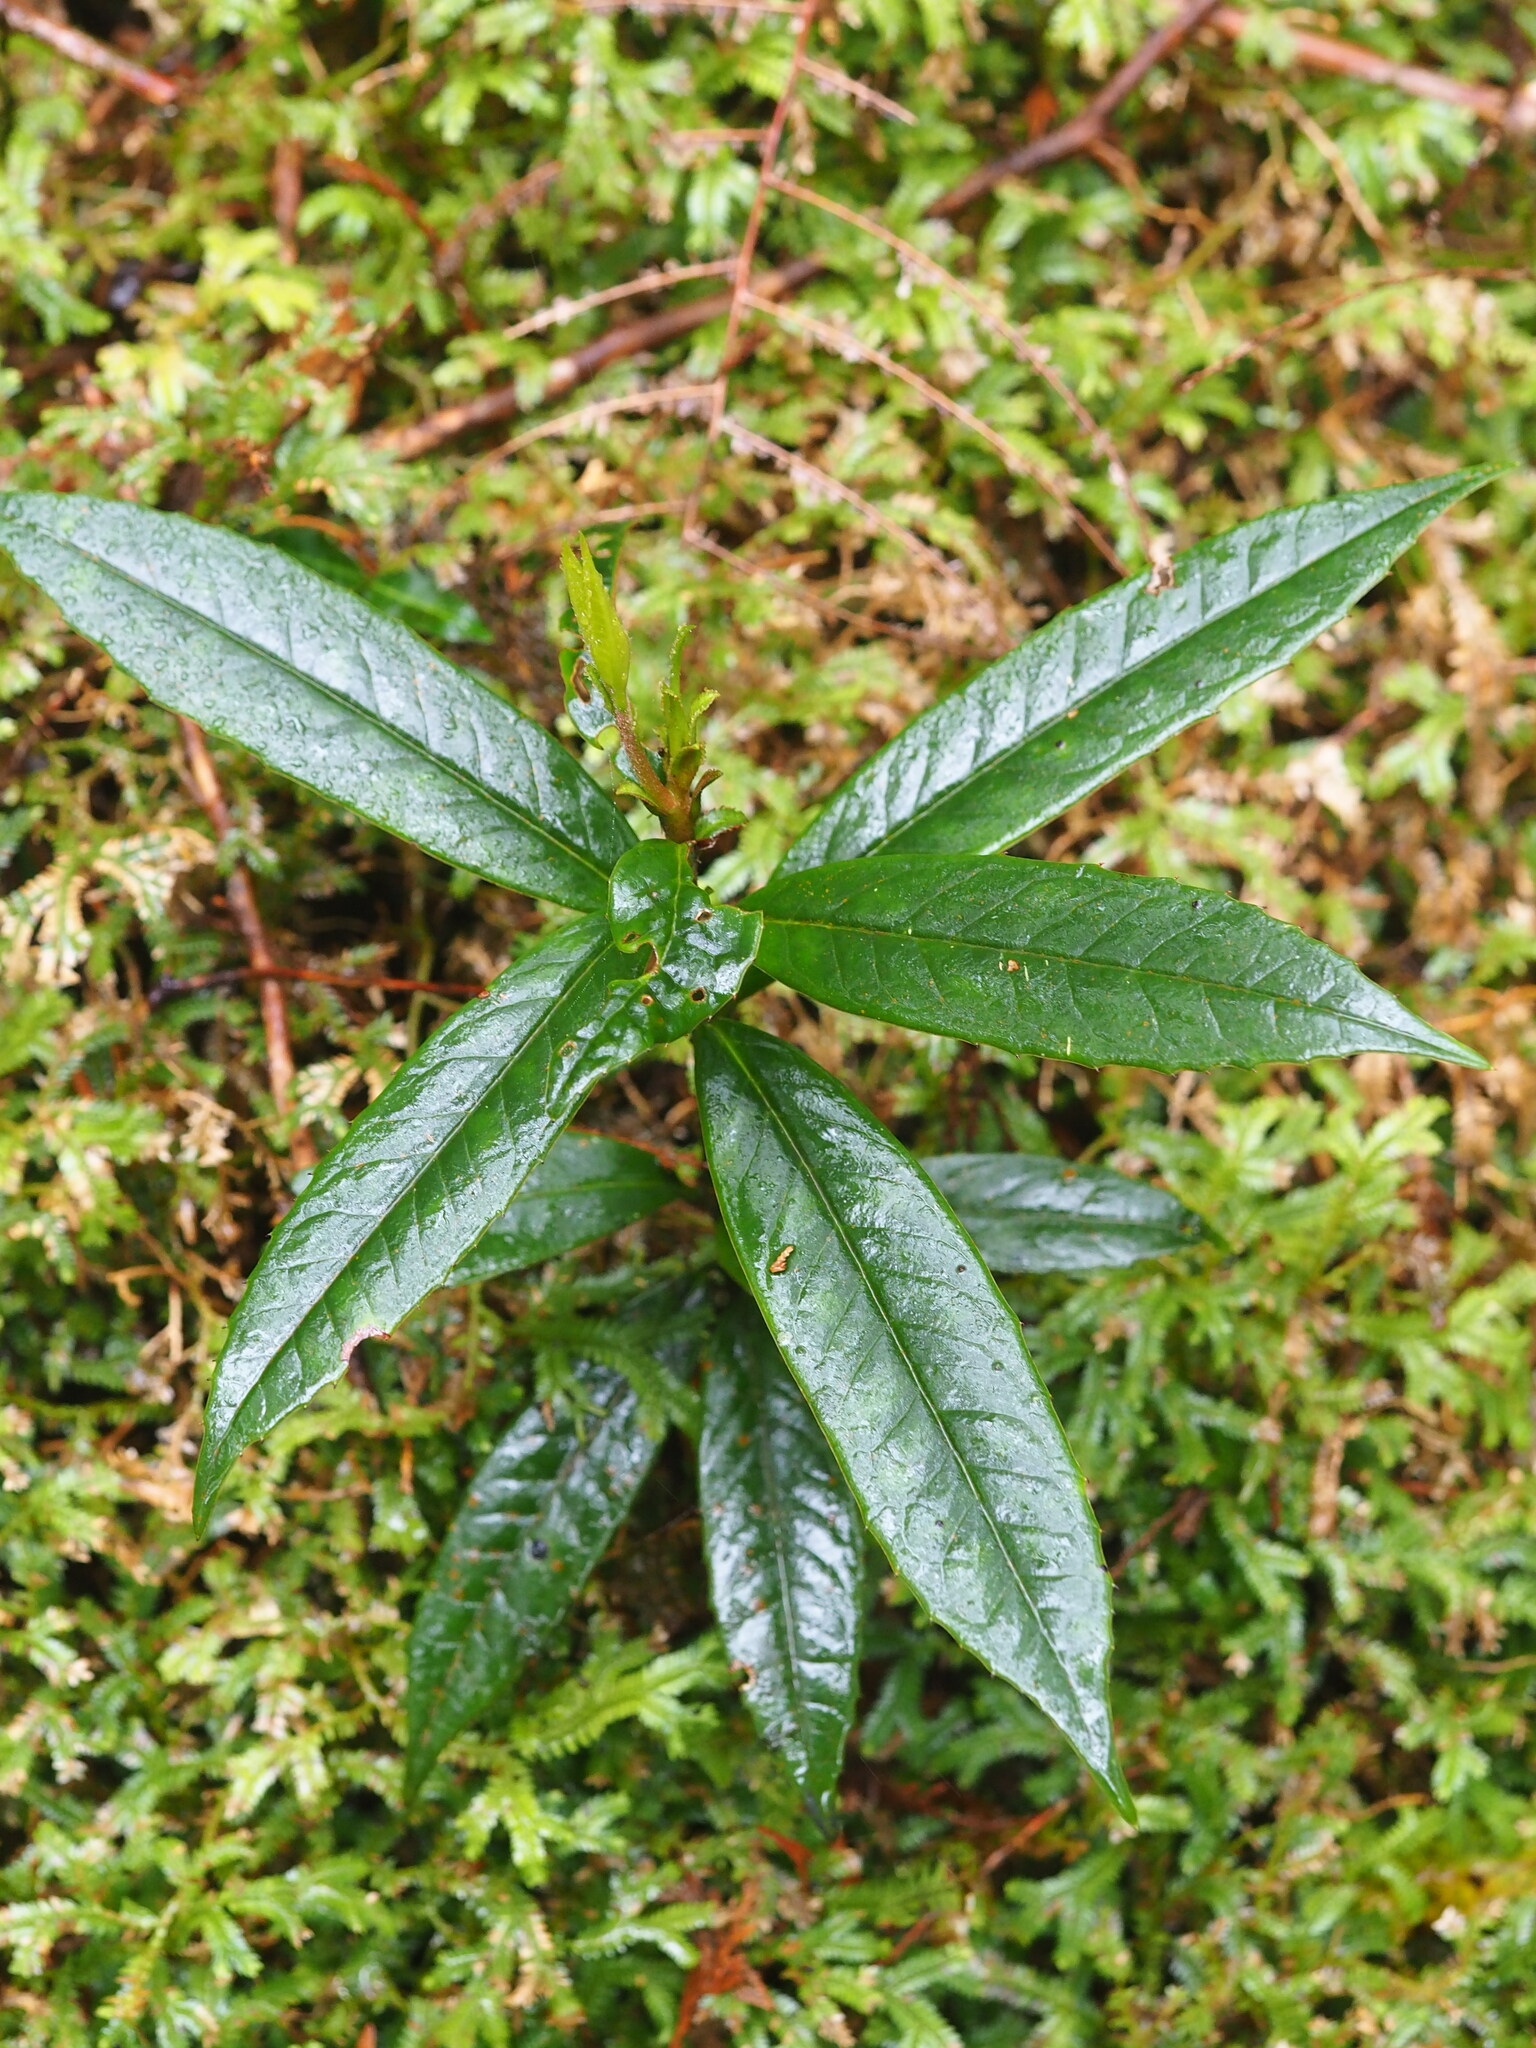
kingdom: Plantae
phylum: Tracheophyta
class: Magnoliopsida
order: Ericales
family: Symplocaceae
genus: Symplocos
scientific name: Symplocos stellaris
